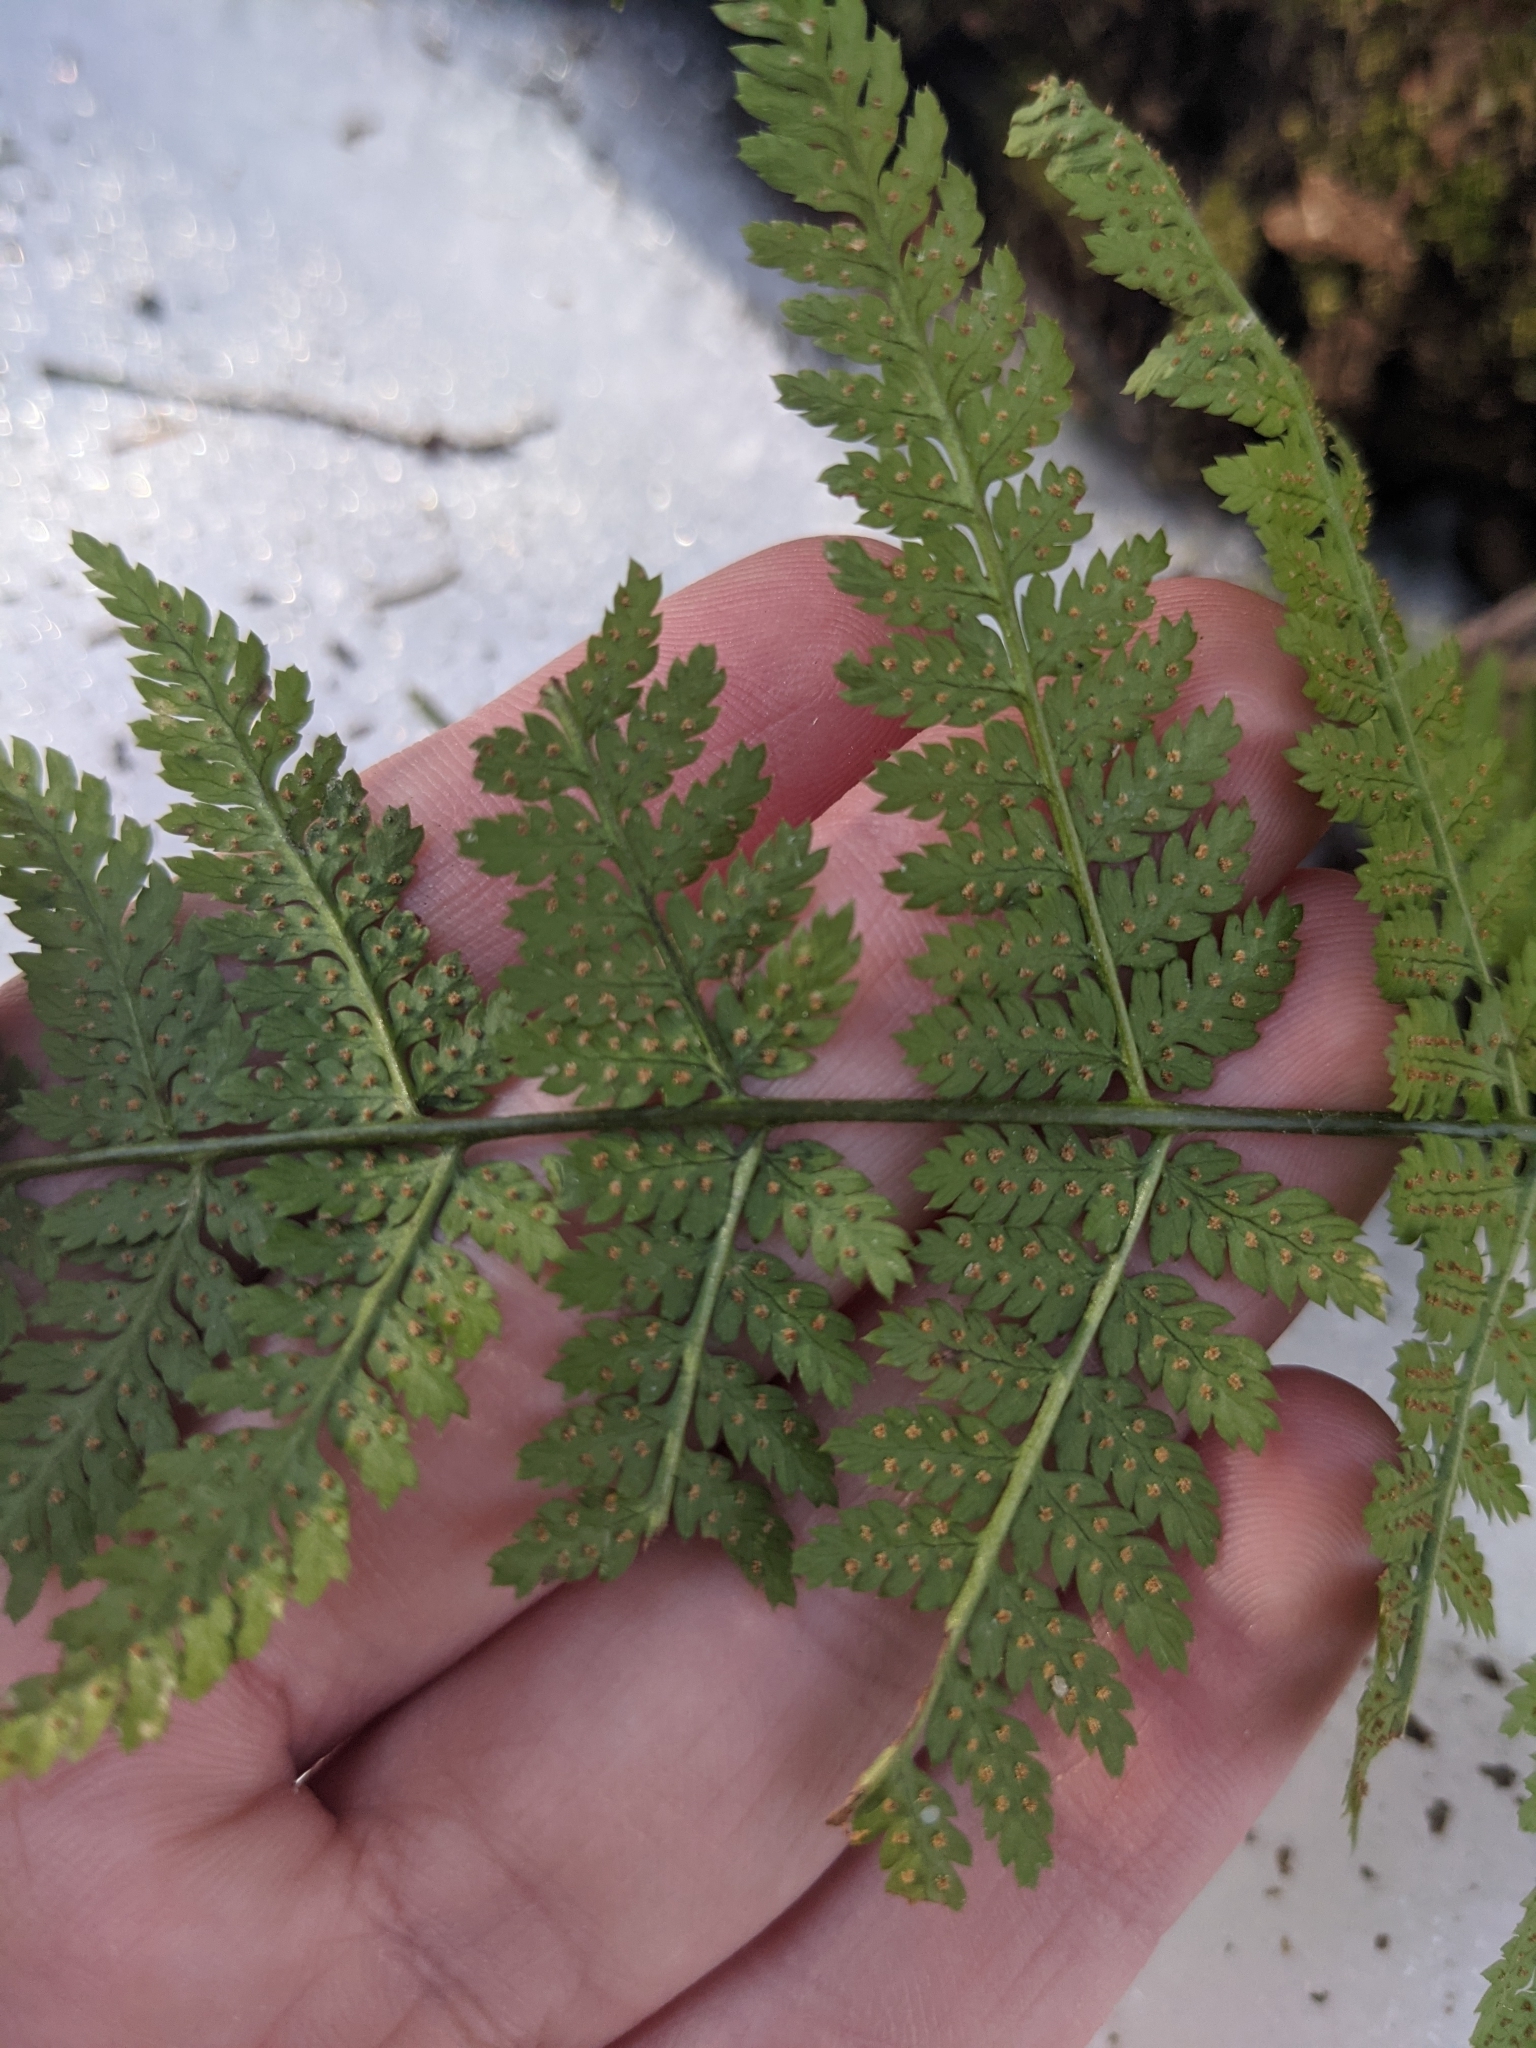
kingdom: Plantae
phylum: Tracheophyta
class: Polypodiopsida
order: Polypodiales
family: Dryopteridaceae
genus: Dryopteris
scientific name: Dryopteris intermedia
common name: Evergreen wood fern
